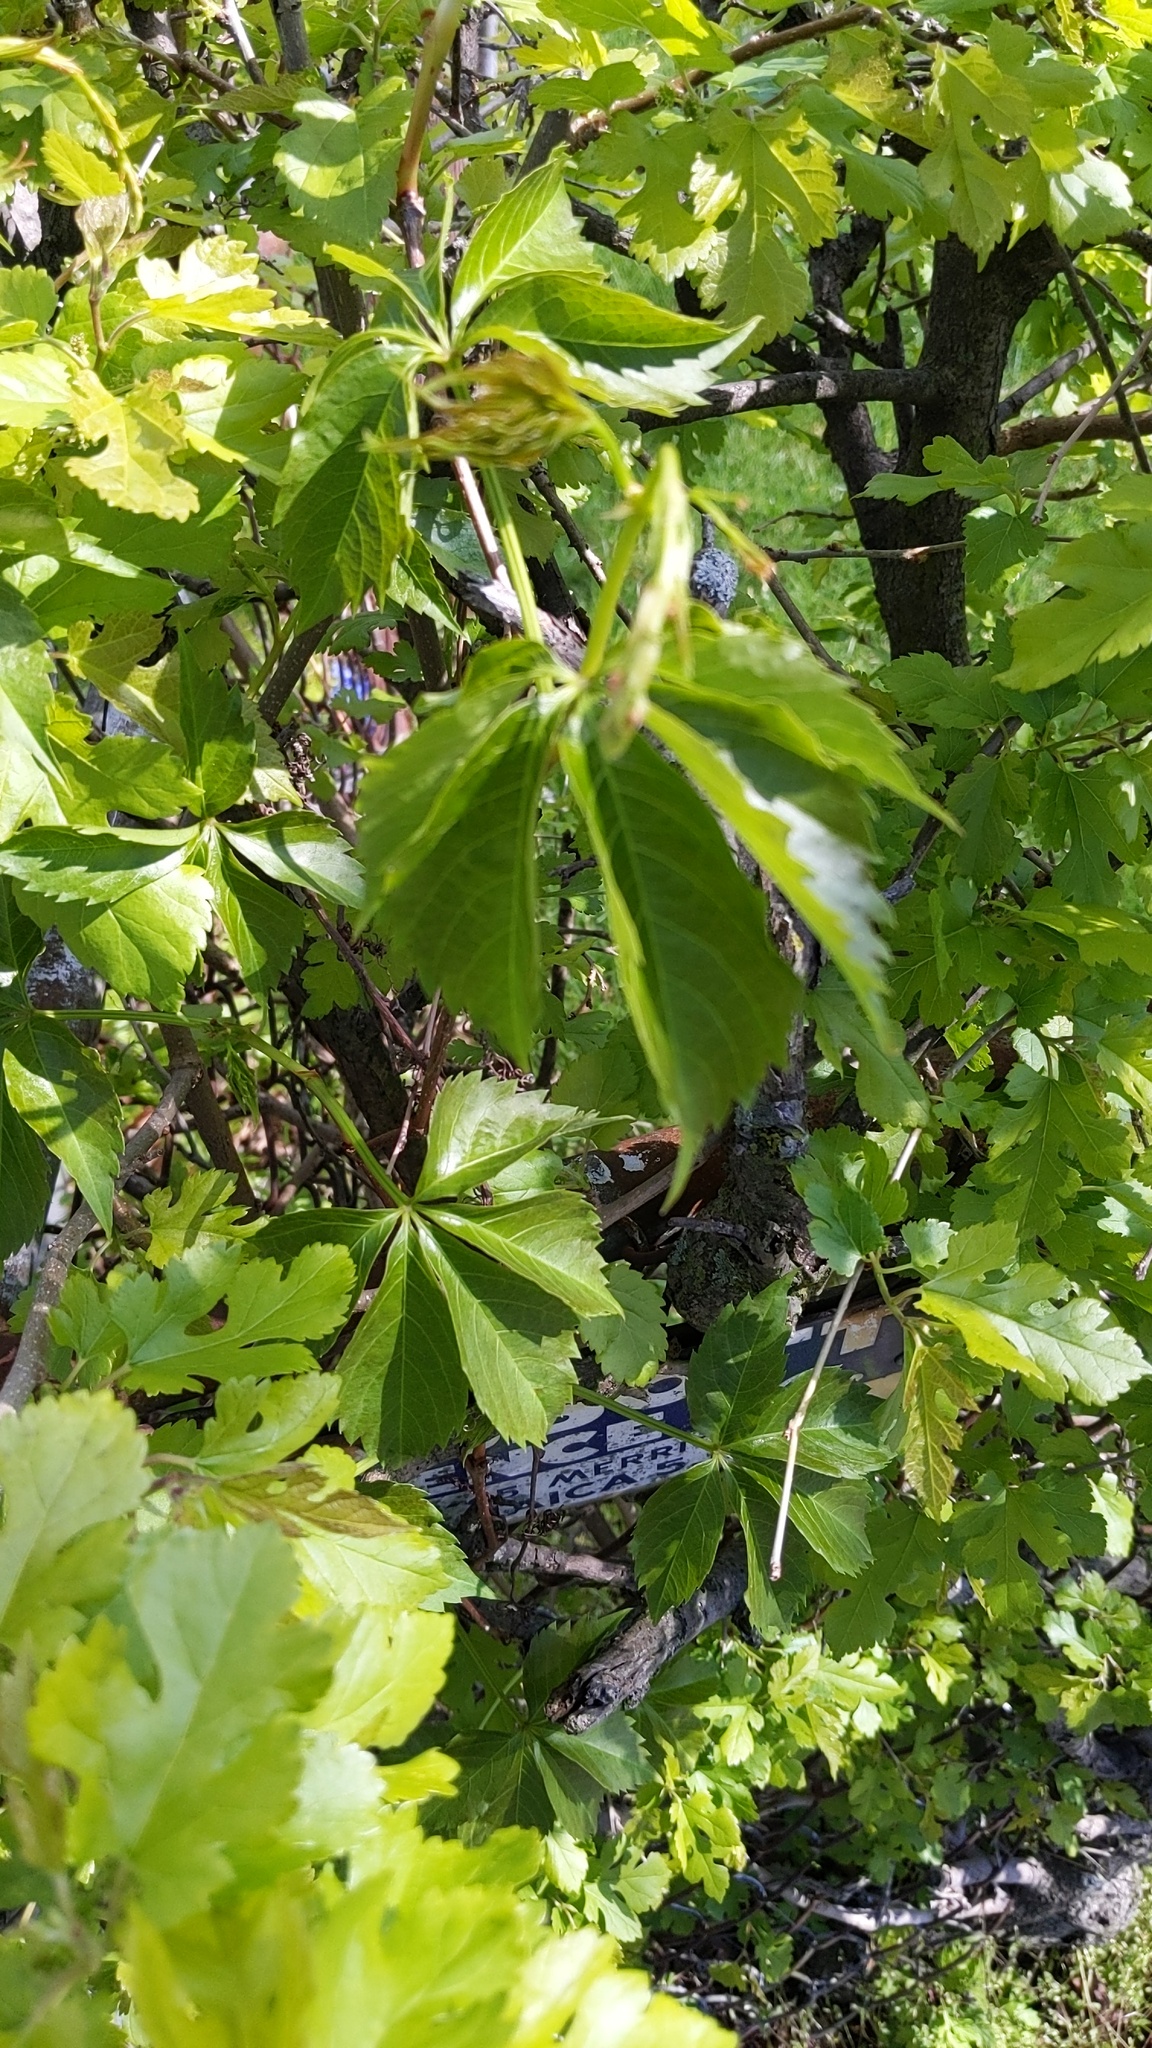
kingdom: Plantae
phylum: Tracheophyta
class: Magnoliopsida
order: Vitales
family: Vitaceae
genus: Parthenocissus
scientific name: Parthenocissus quinquefolia
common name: Virginia-creeper
